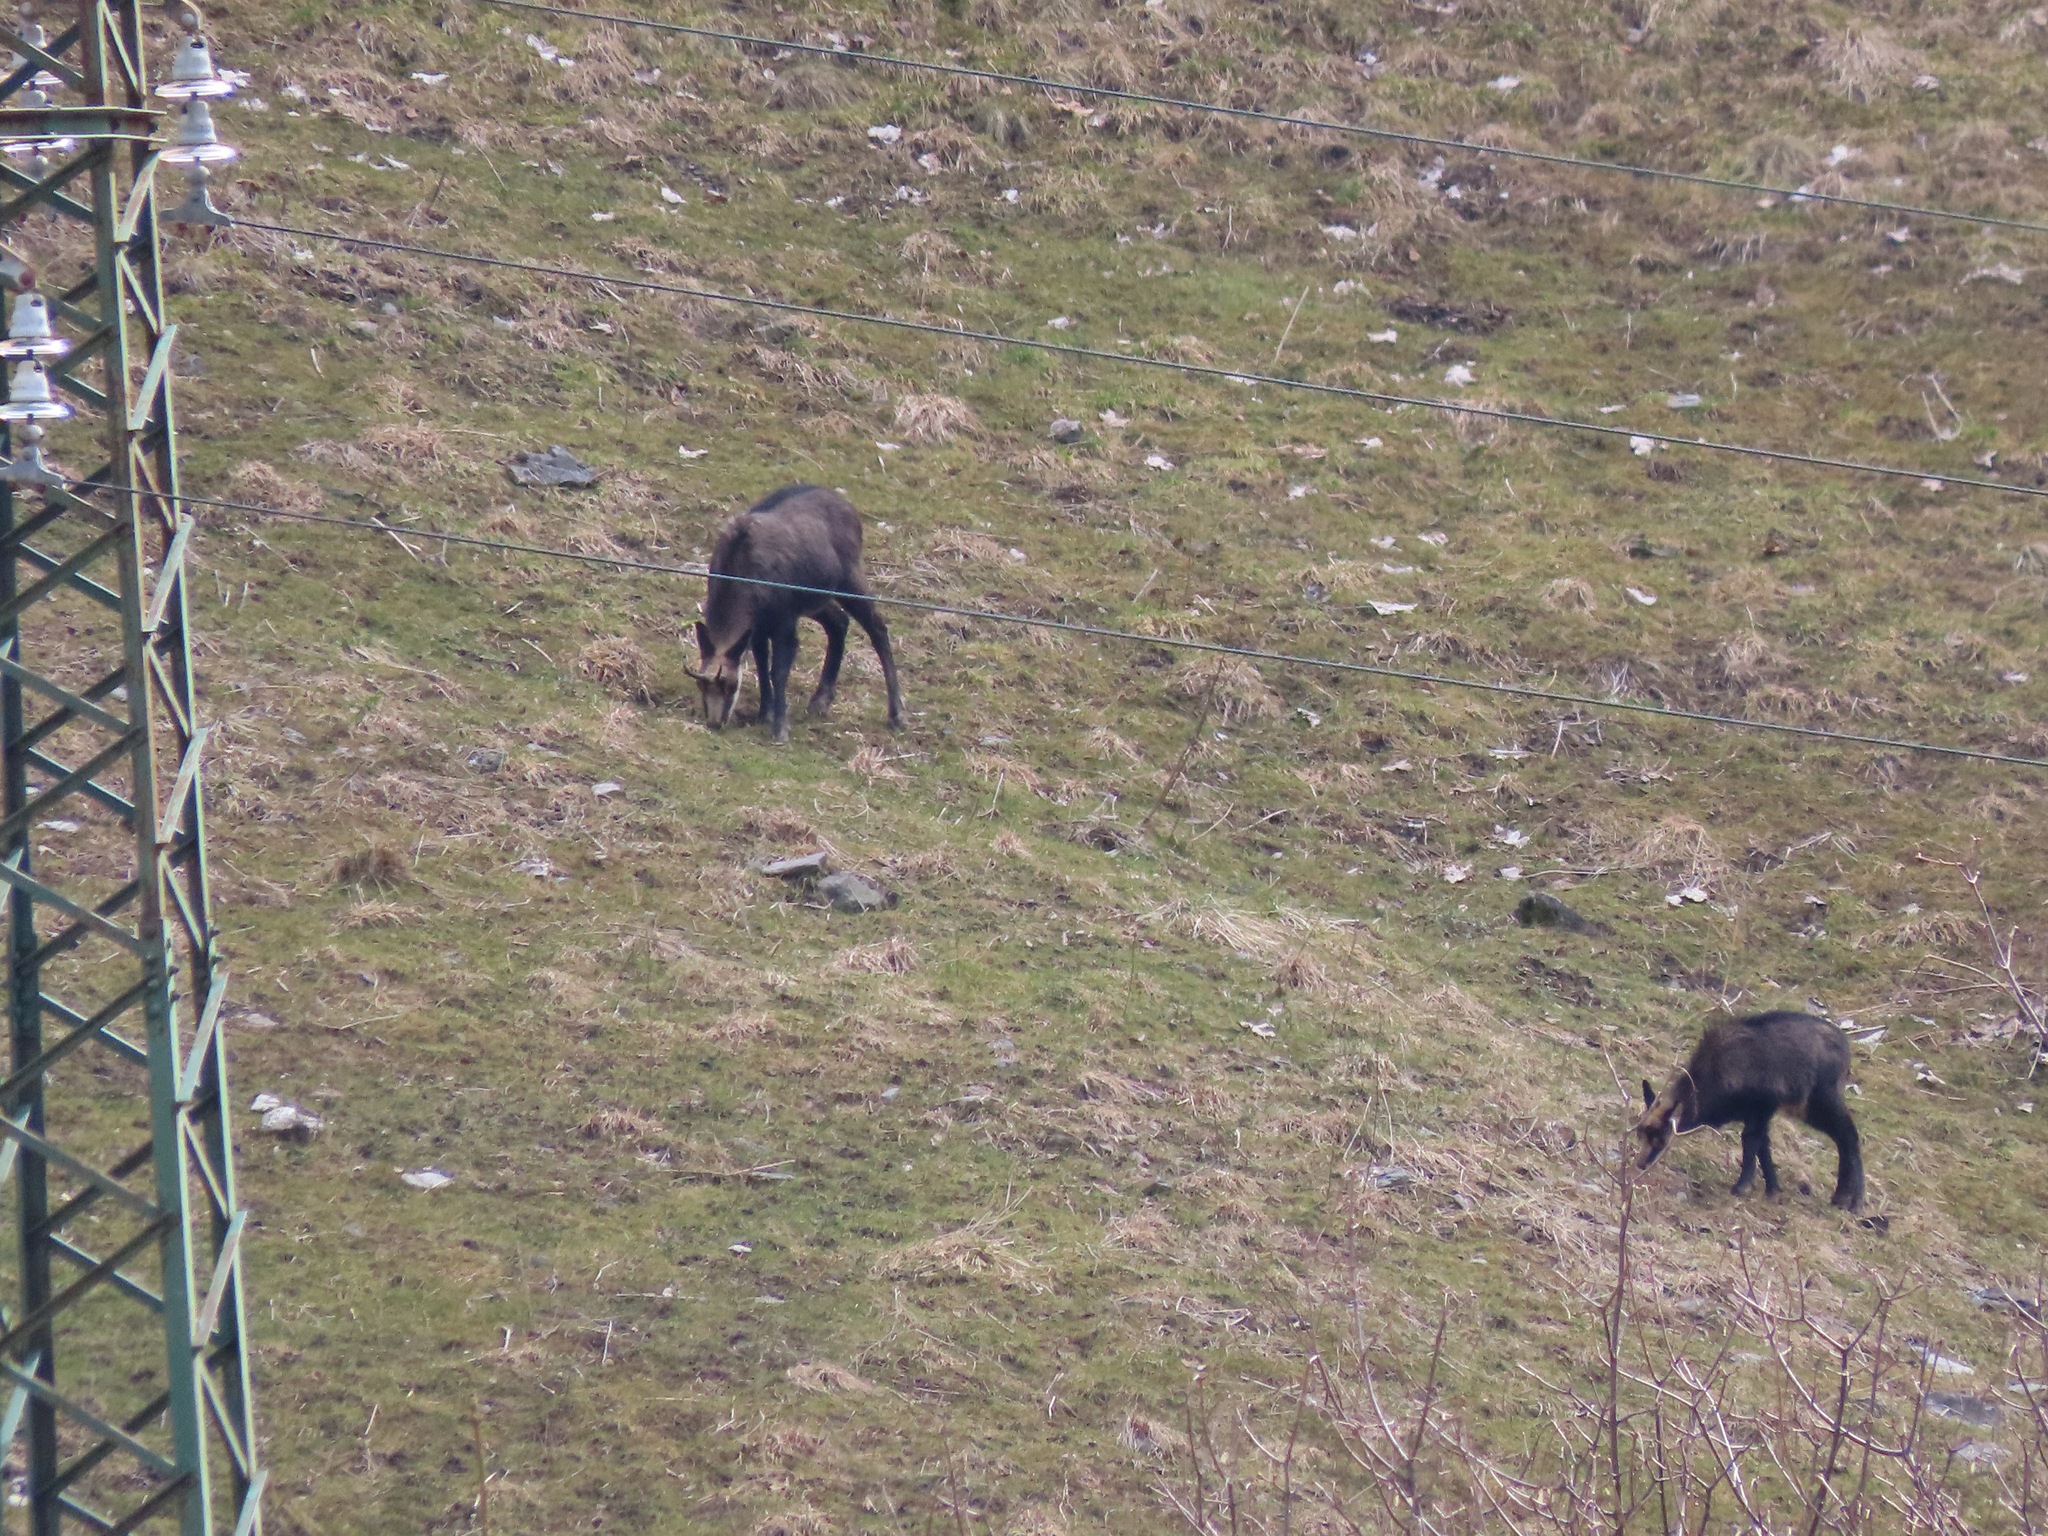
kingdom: Animalia
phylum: Chordata
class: Mammalia
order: Artiodactyla
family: Bovidae
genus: Rupicapra
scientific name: Rupicapra rupicapra
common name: Chamois
